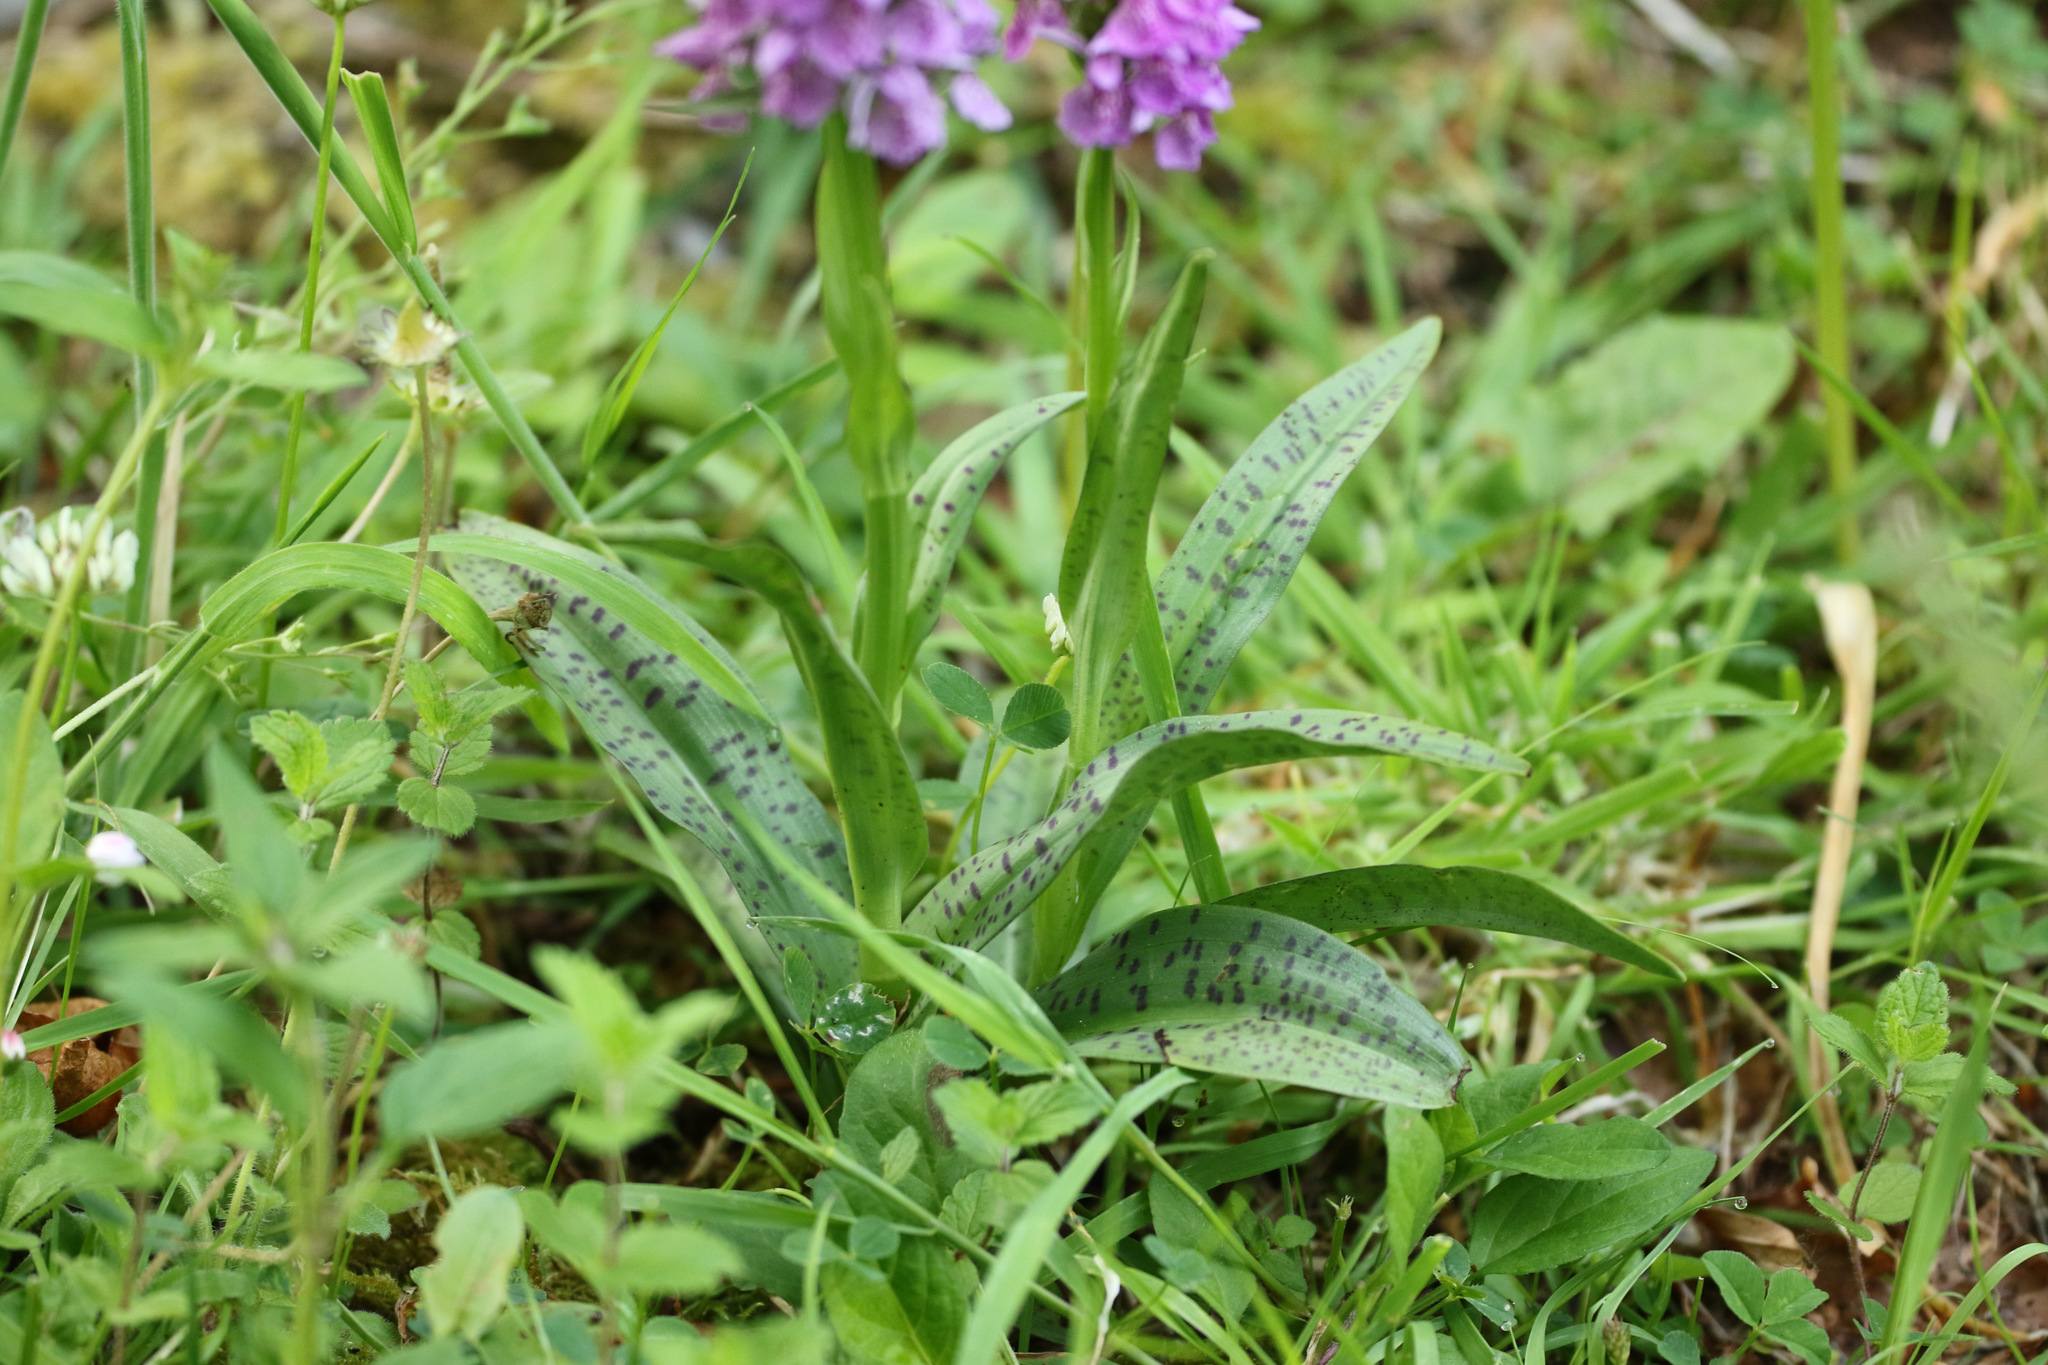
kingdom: Plantae
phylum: Tracheophyta
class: Liliopsida
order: Asparagales
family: Orchidaceae
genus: Dactylorhiza
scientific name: Dactylorhiza maculata
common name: Heath spotted-orchid
